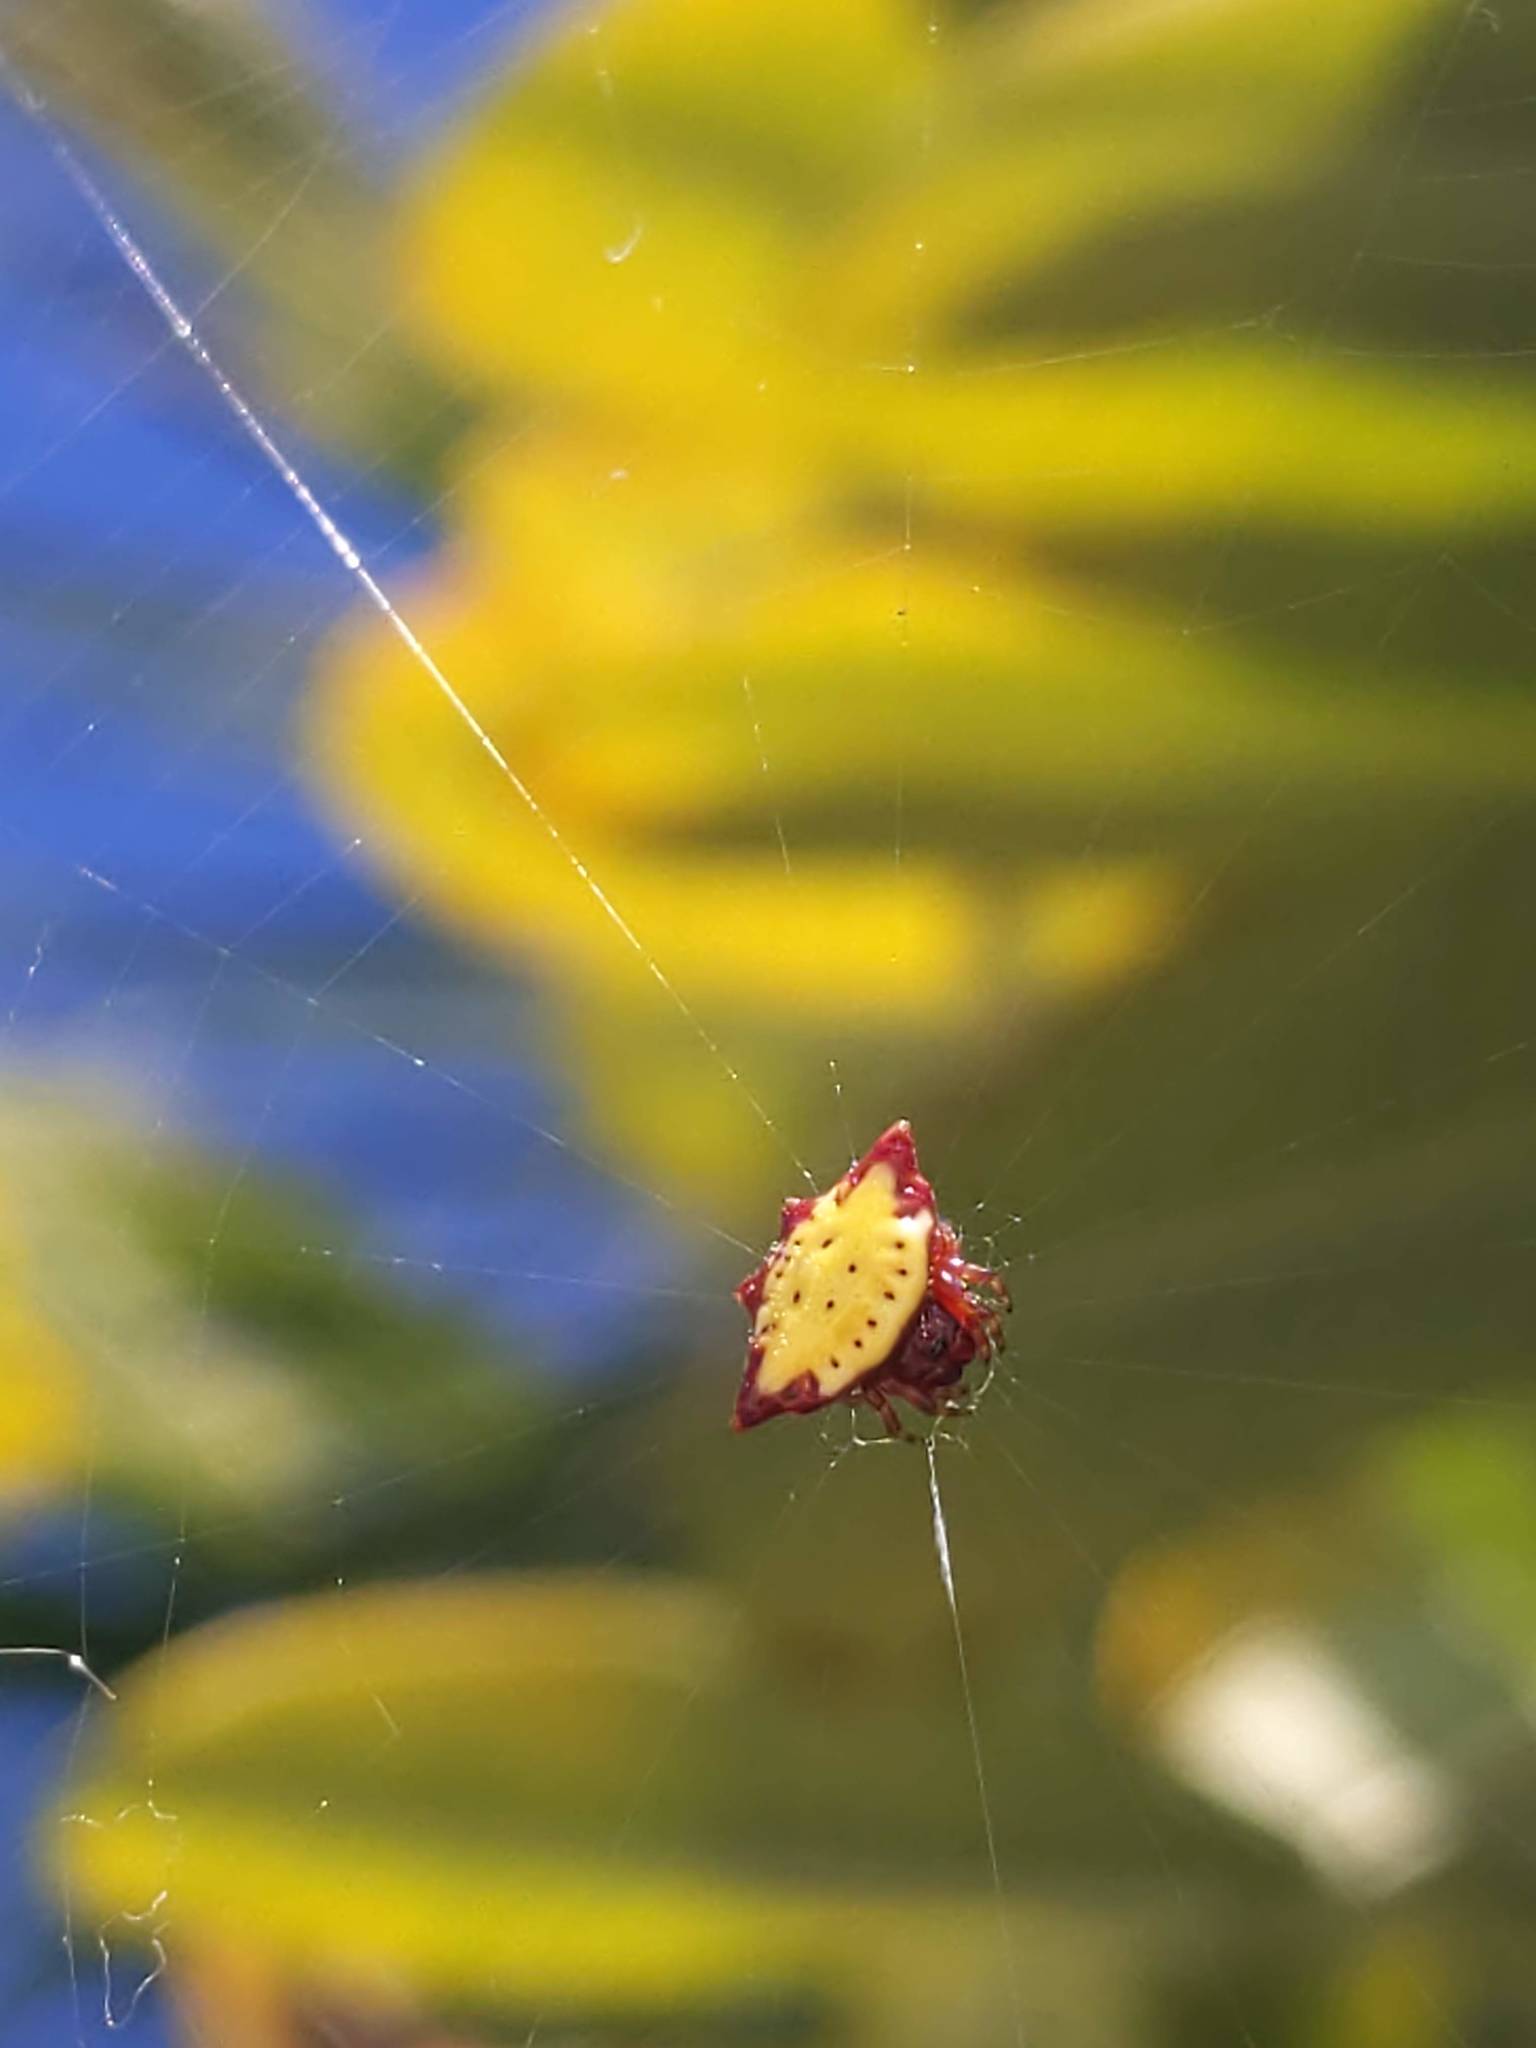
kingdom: Animalia
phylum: Arthropoda
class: Arachnida
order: Araneae
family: Araneidae
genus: Gasteracantha
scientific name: Gasteracantha cancriformis
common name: Orb weavers
